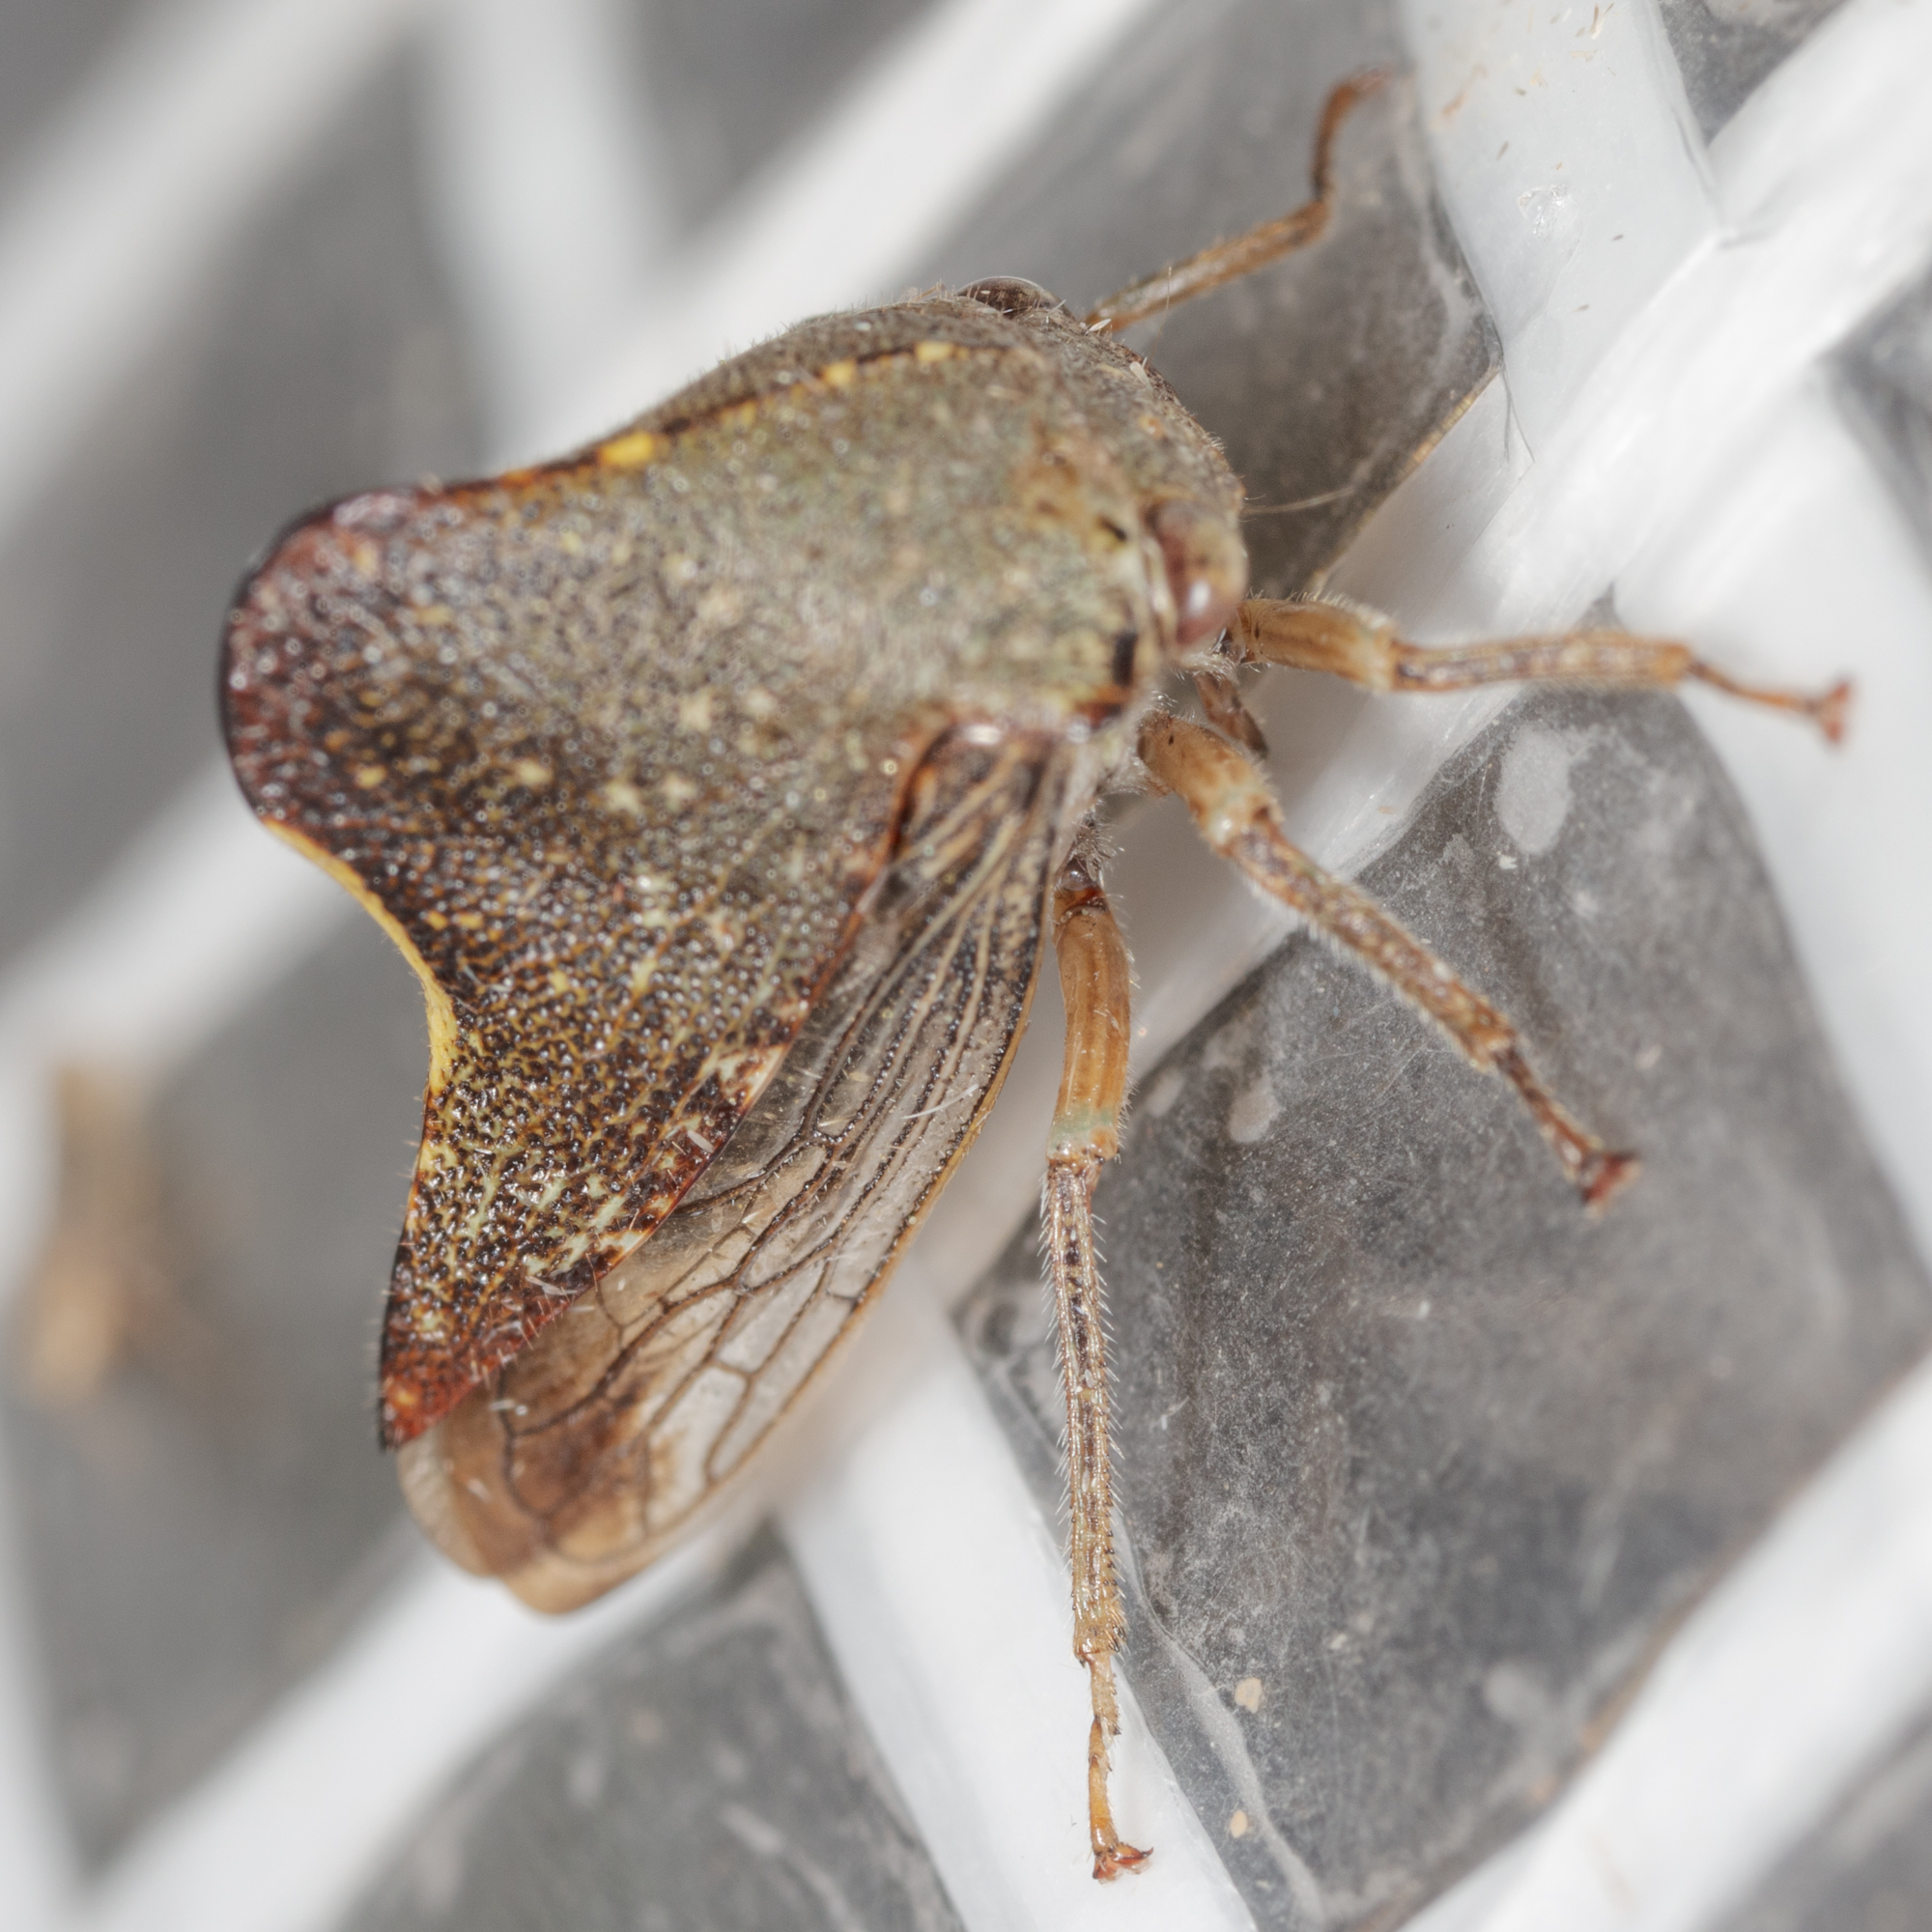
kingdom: Animalia
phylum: Arthropoda
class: Insecta
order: Hemiptera
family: Membracidae
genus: Telamona
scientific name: Telamona monticola
